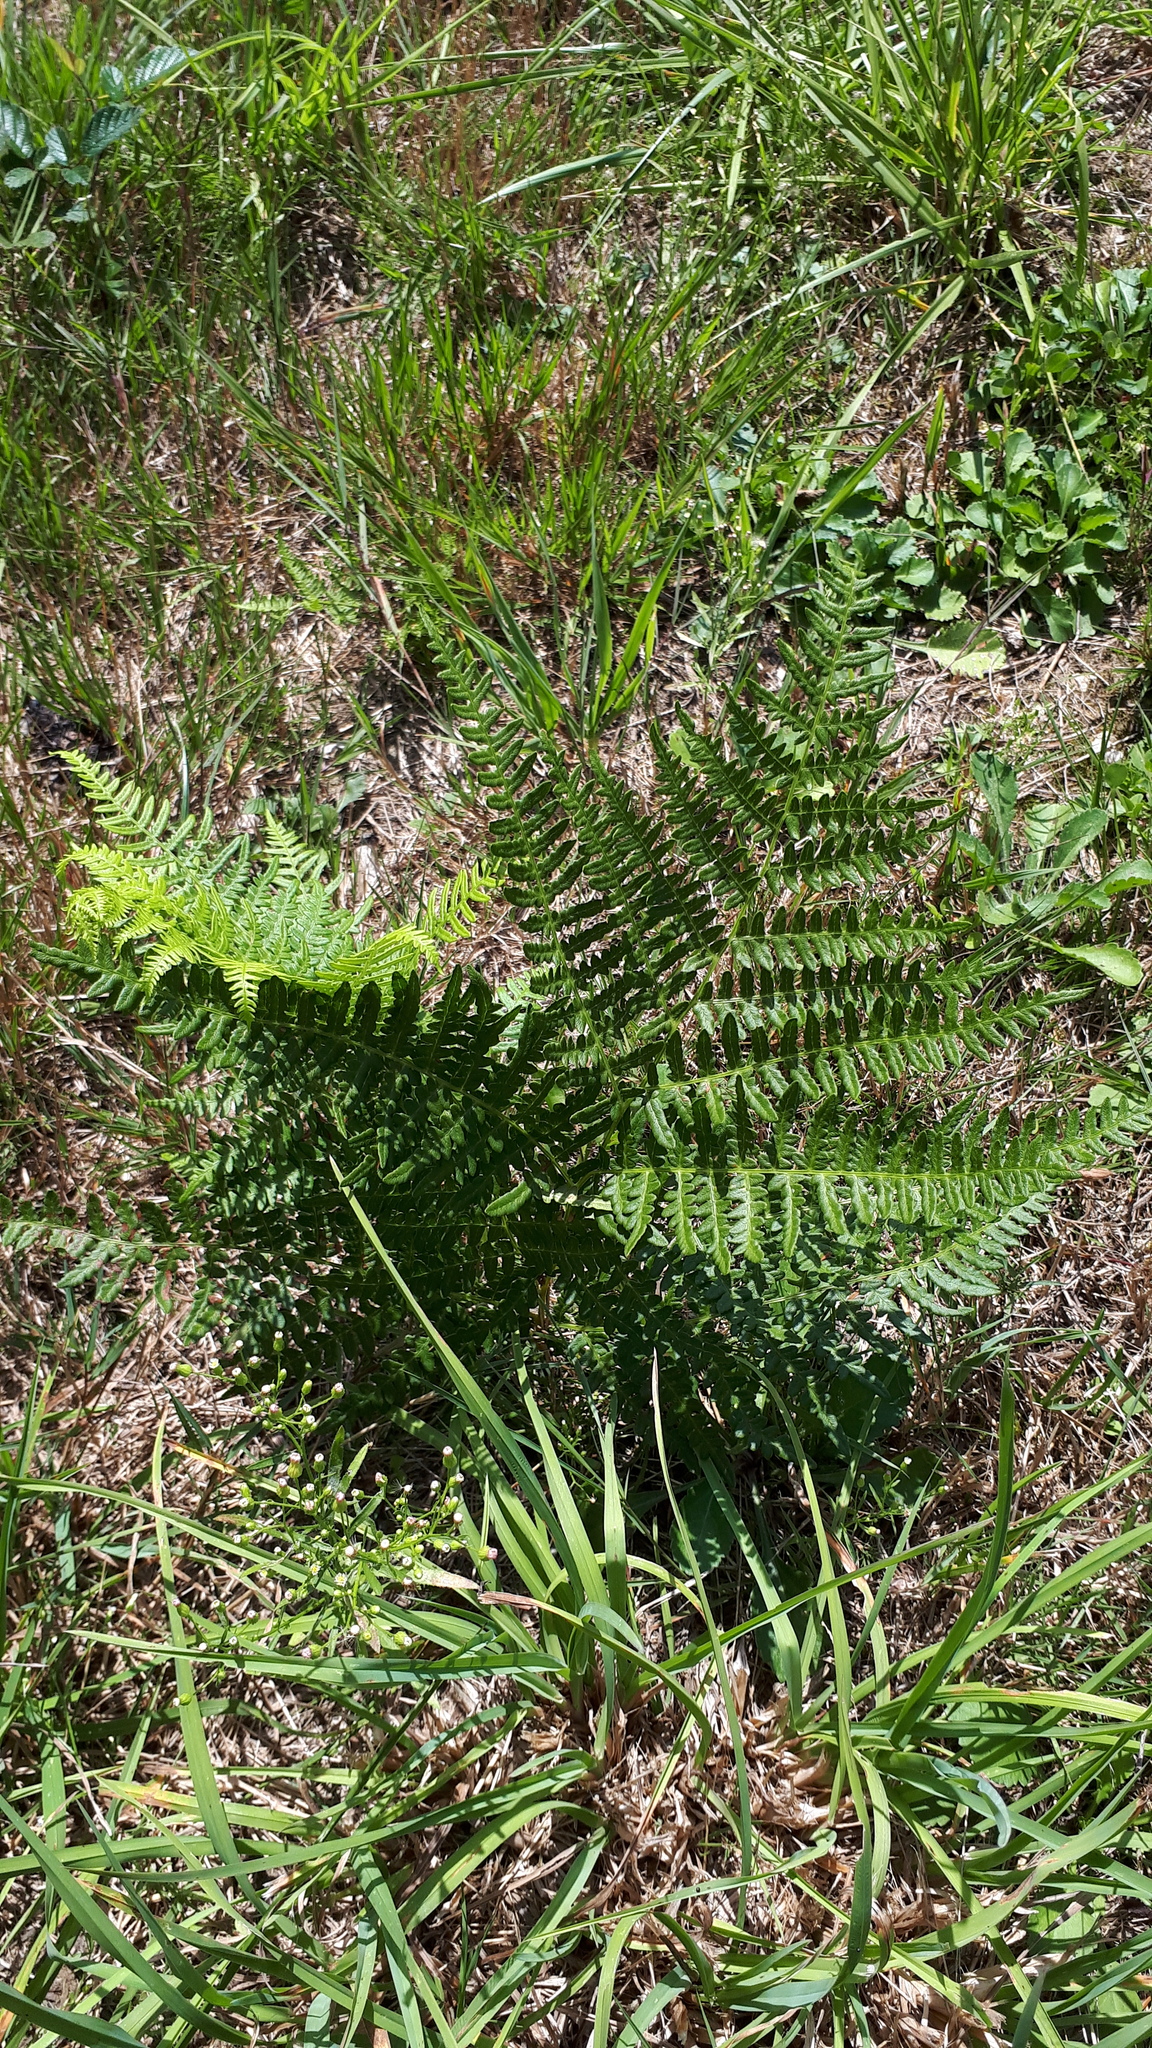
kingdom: Plantae
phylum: Tracheophyta
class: Polypodiopsida
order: Polypodiales
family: Dennstaedtiaceae
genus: Pteridium
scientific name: Pteridium aquilinum
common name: Bracken
